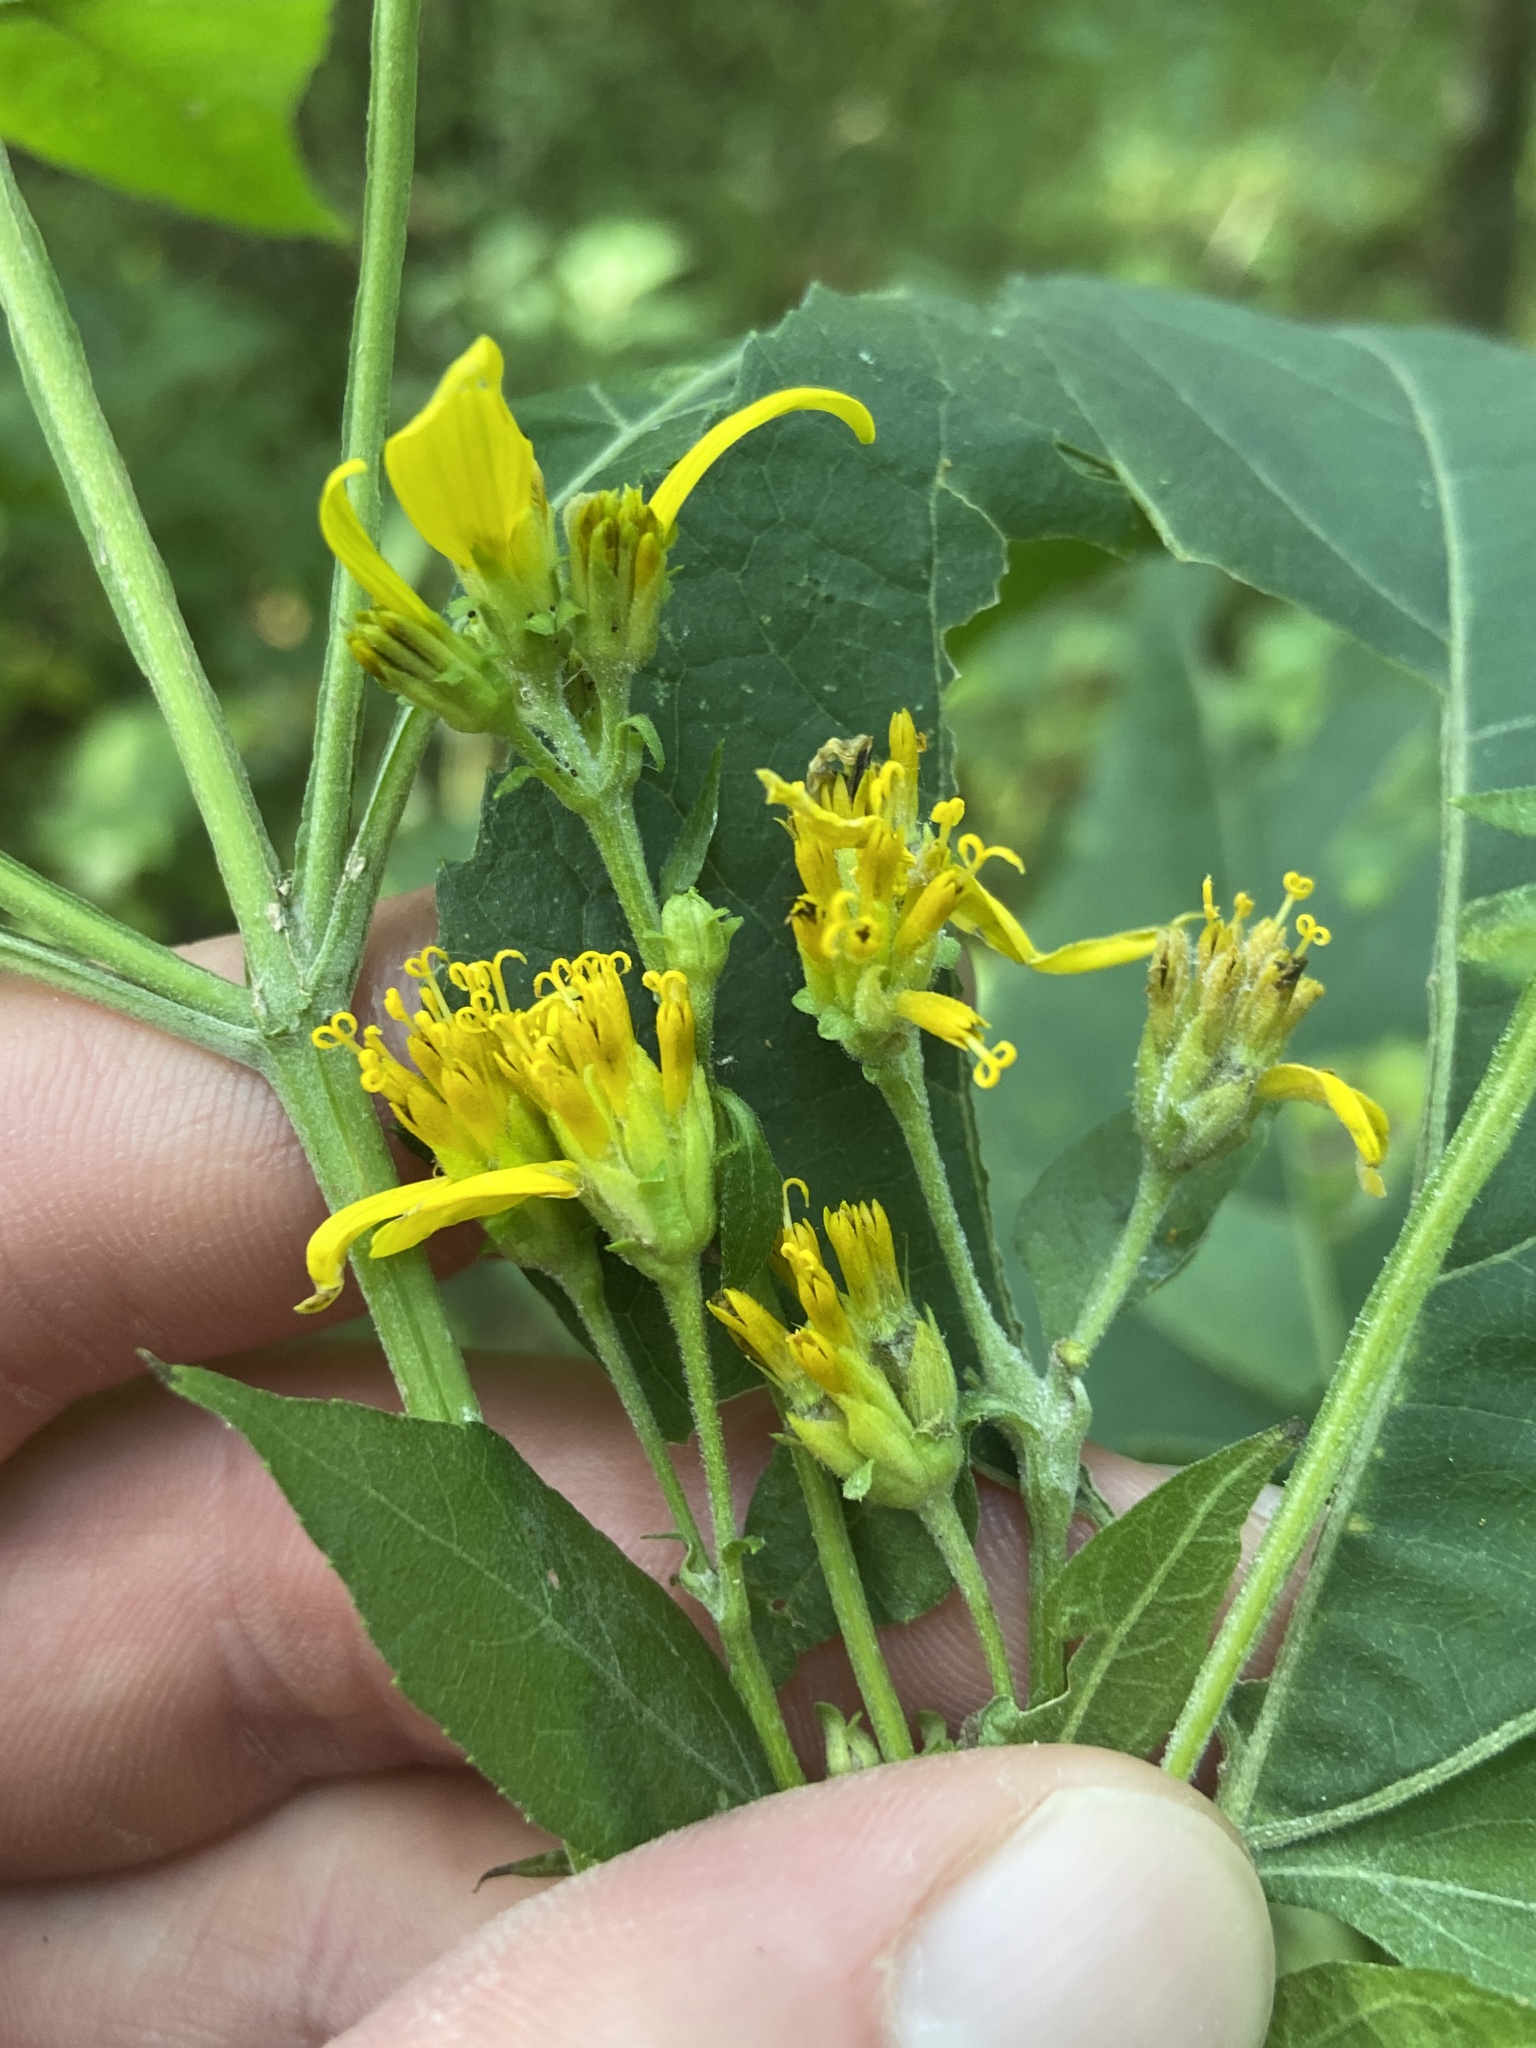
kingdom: Plantae
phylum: Tracheophyta
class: Magnoliopsida
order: Asterales
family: Asteraceae
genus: Verbesina
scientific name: Verbesina occidentalis
